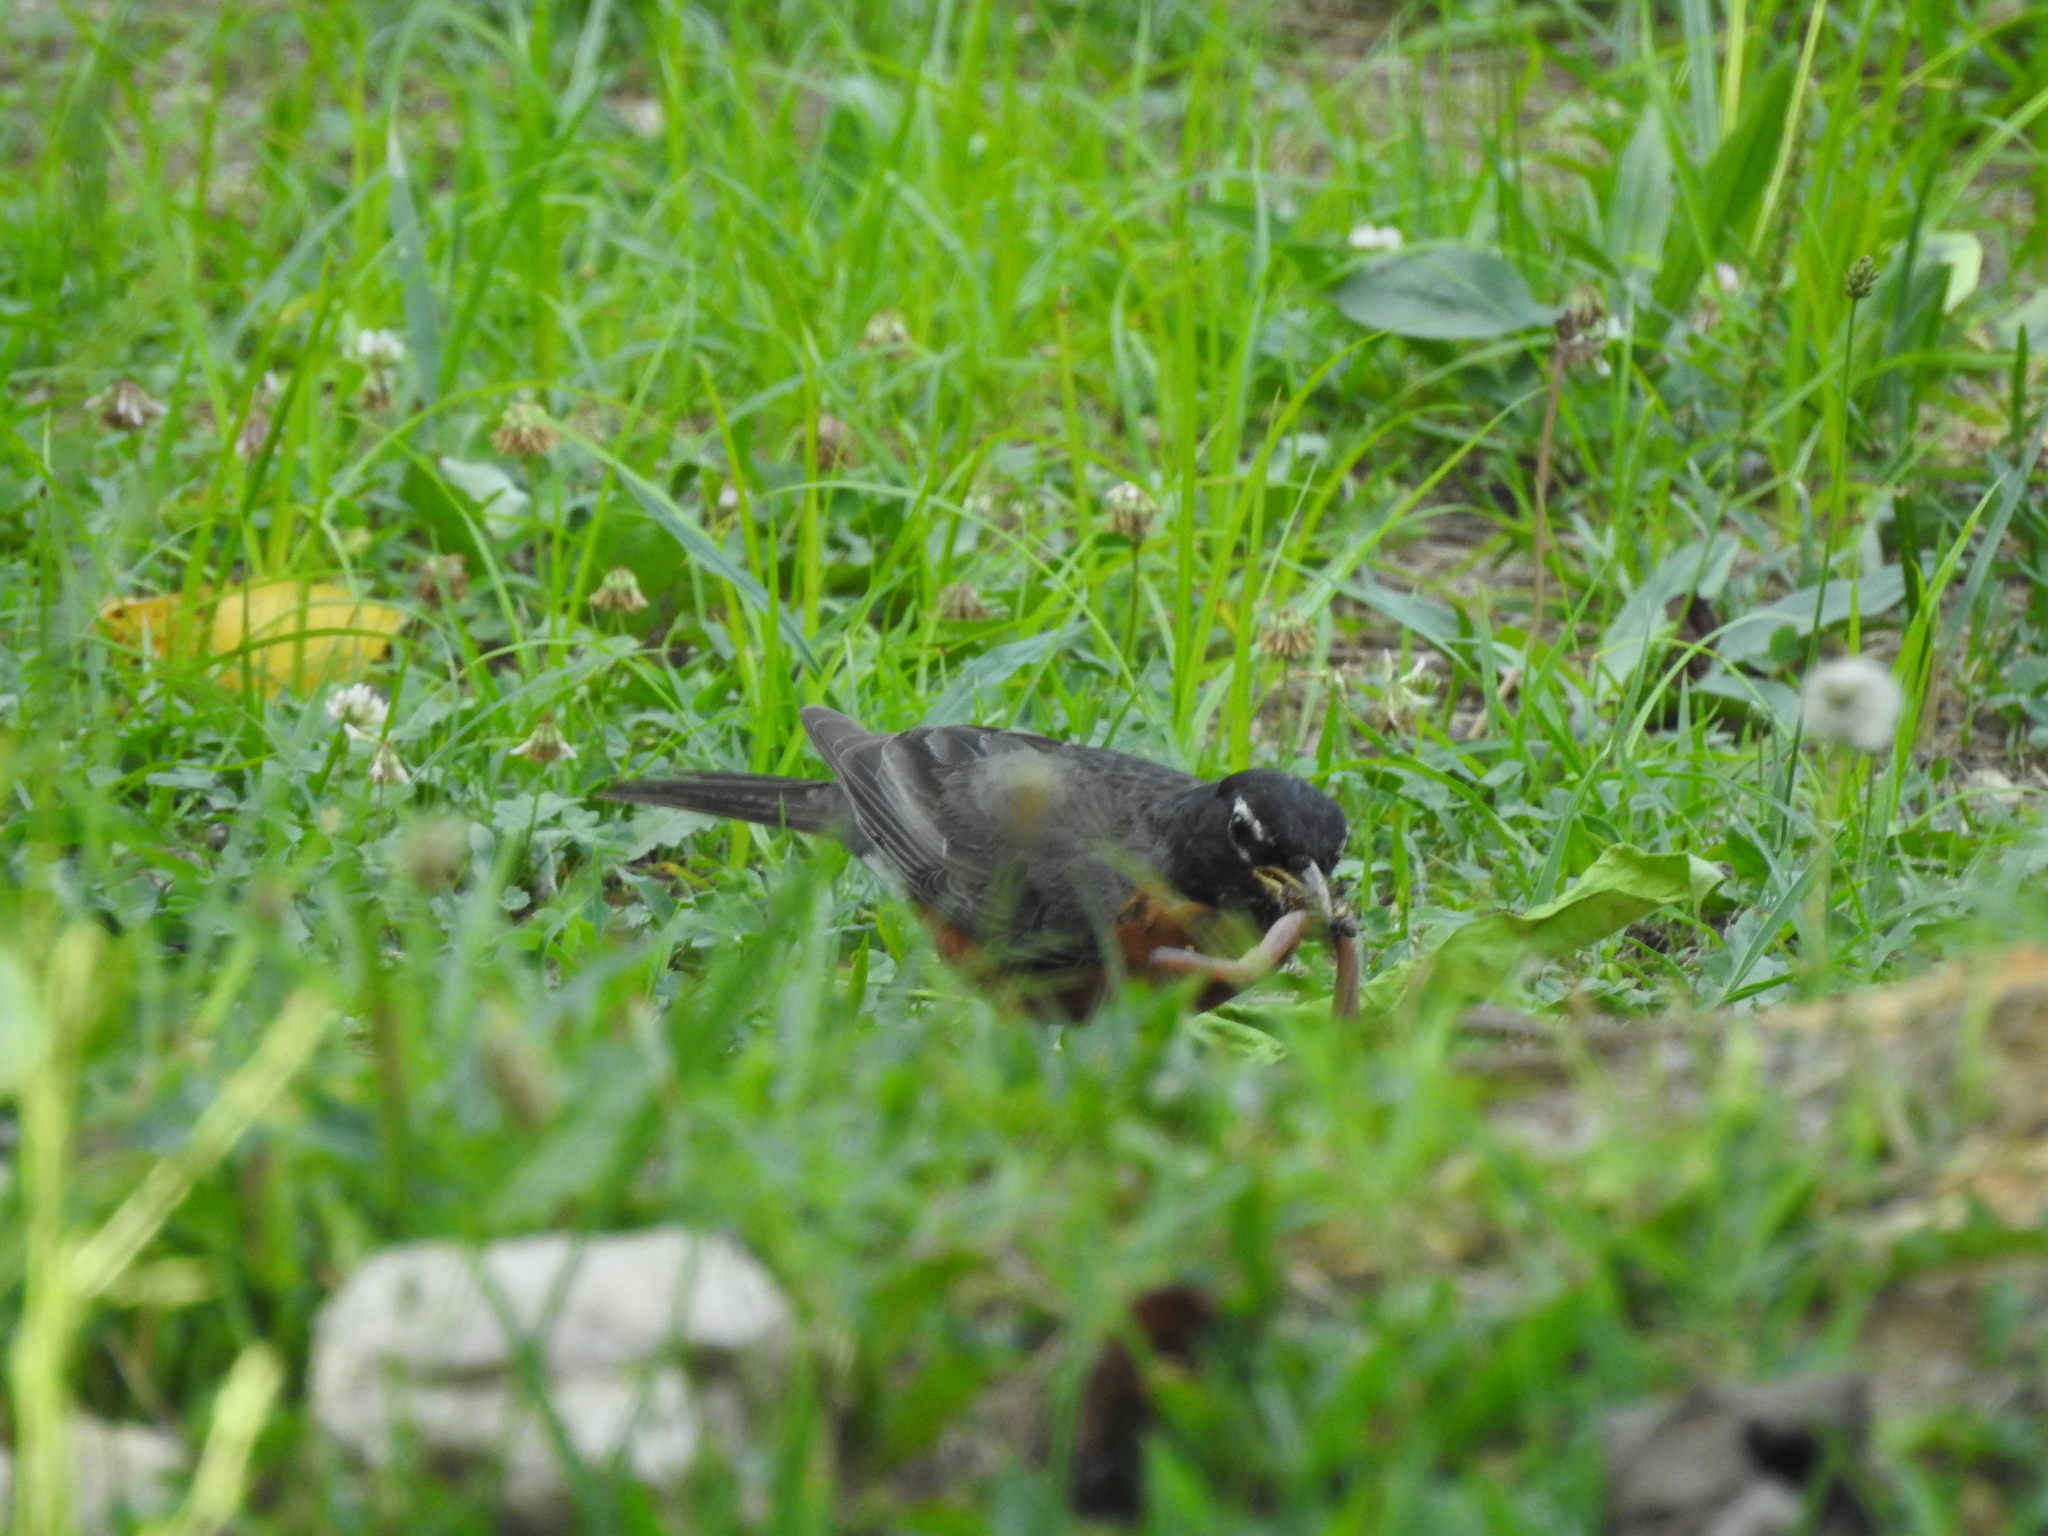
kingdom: Animalia
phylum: Chordata
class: Aves
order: Passeriformes
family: Turdidae
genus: Turdus
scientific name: Turdus migratorius
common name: American robin
